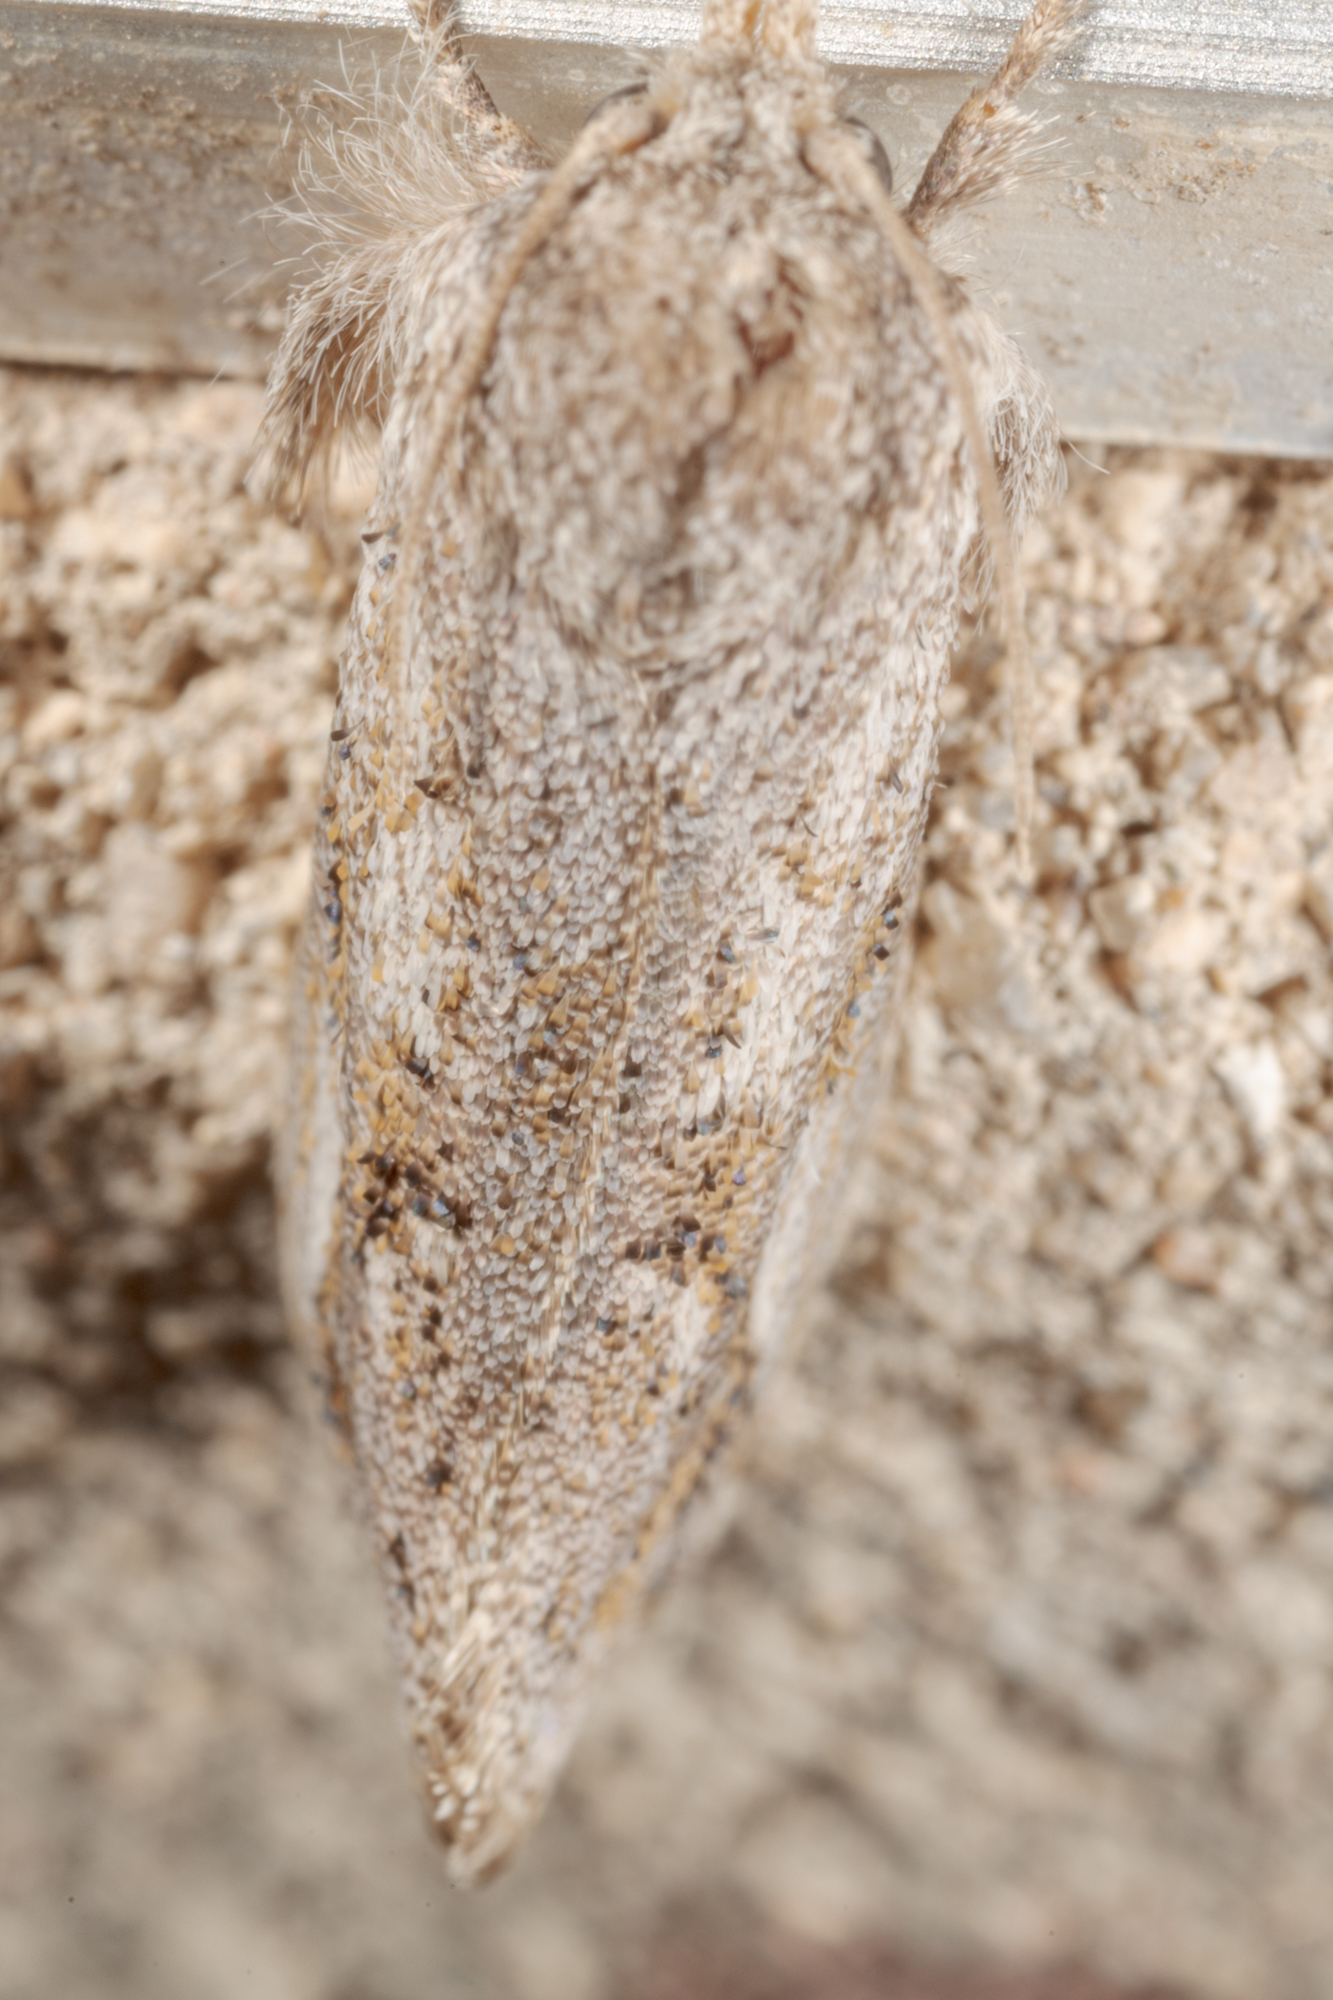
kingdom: Animalia
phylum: Arthropoda
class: Insecta
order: Lepidoptera
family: Tineidae
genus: Acrolophus
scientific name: Acrolophus griseus
